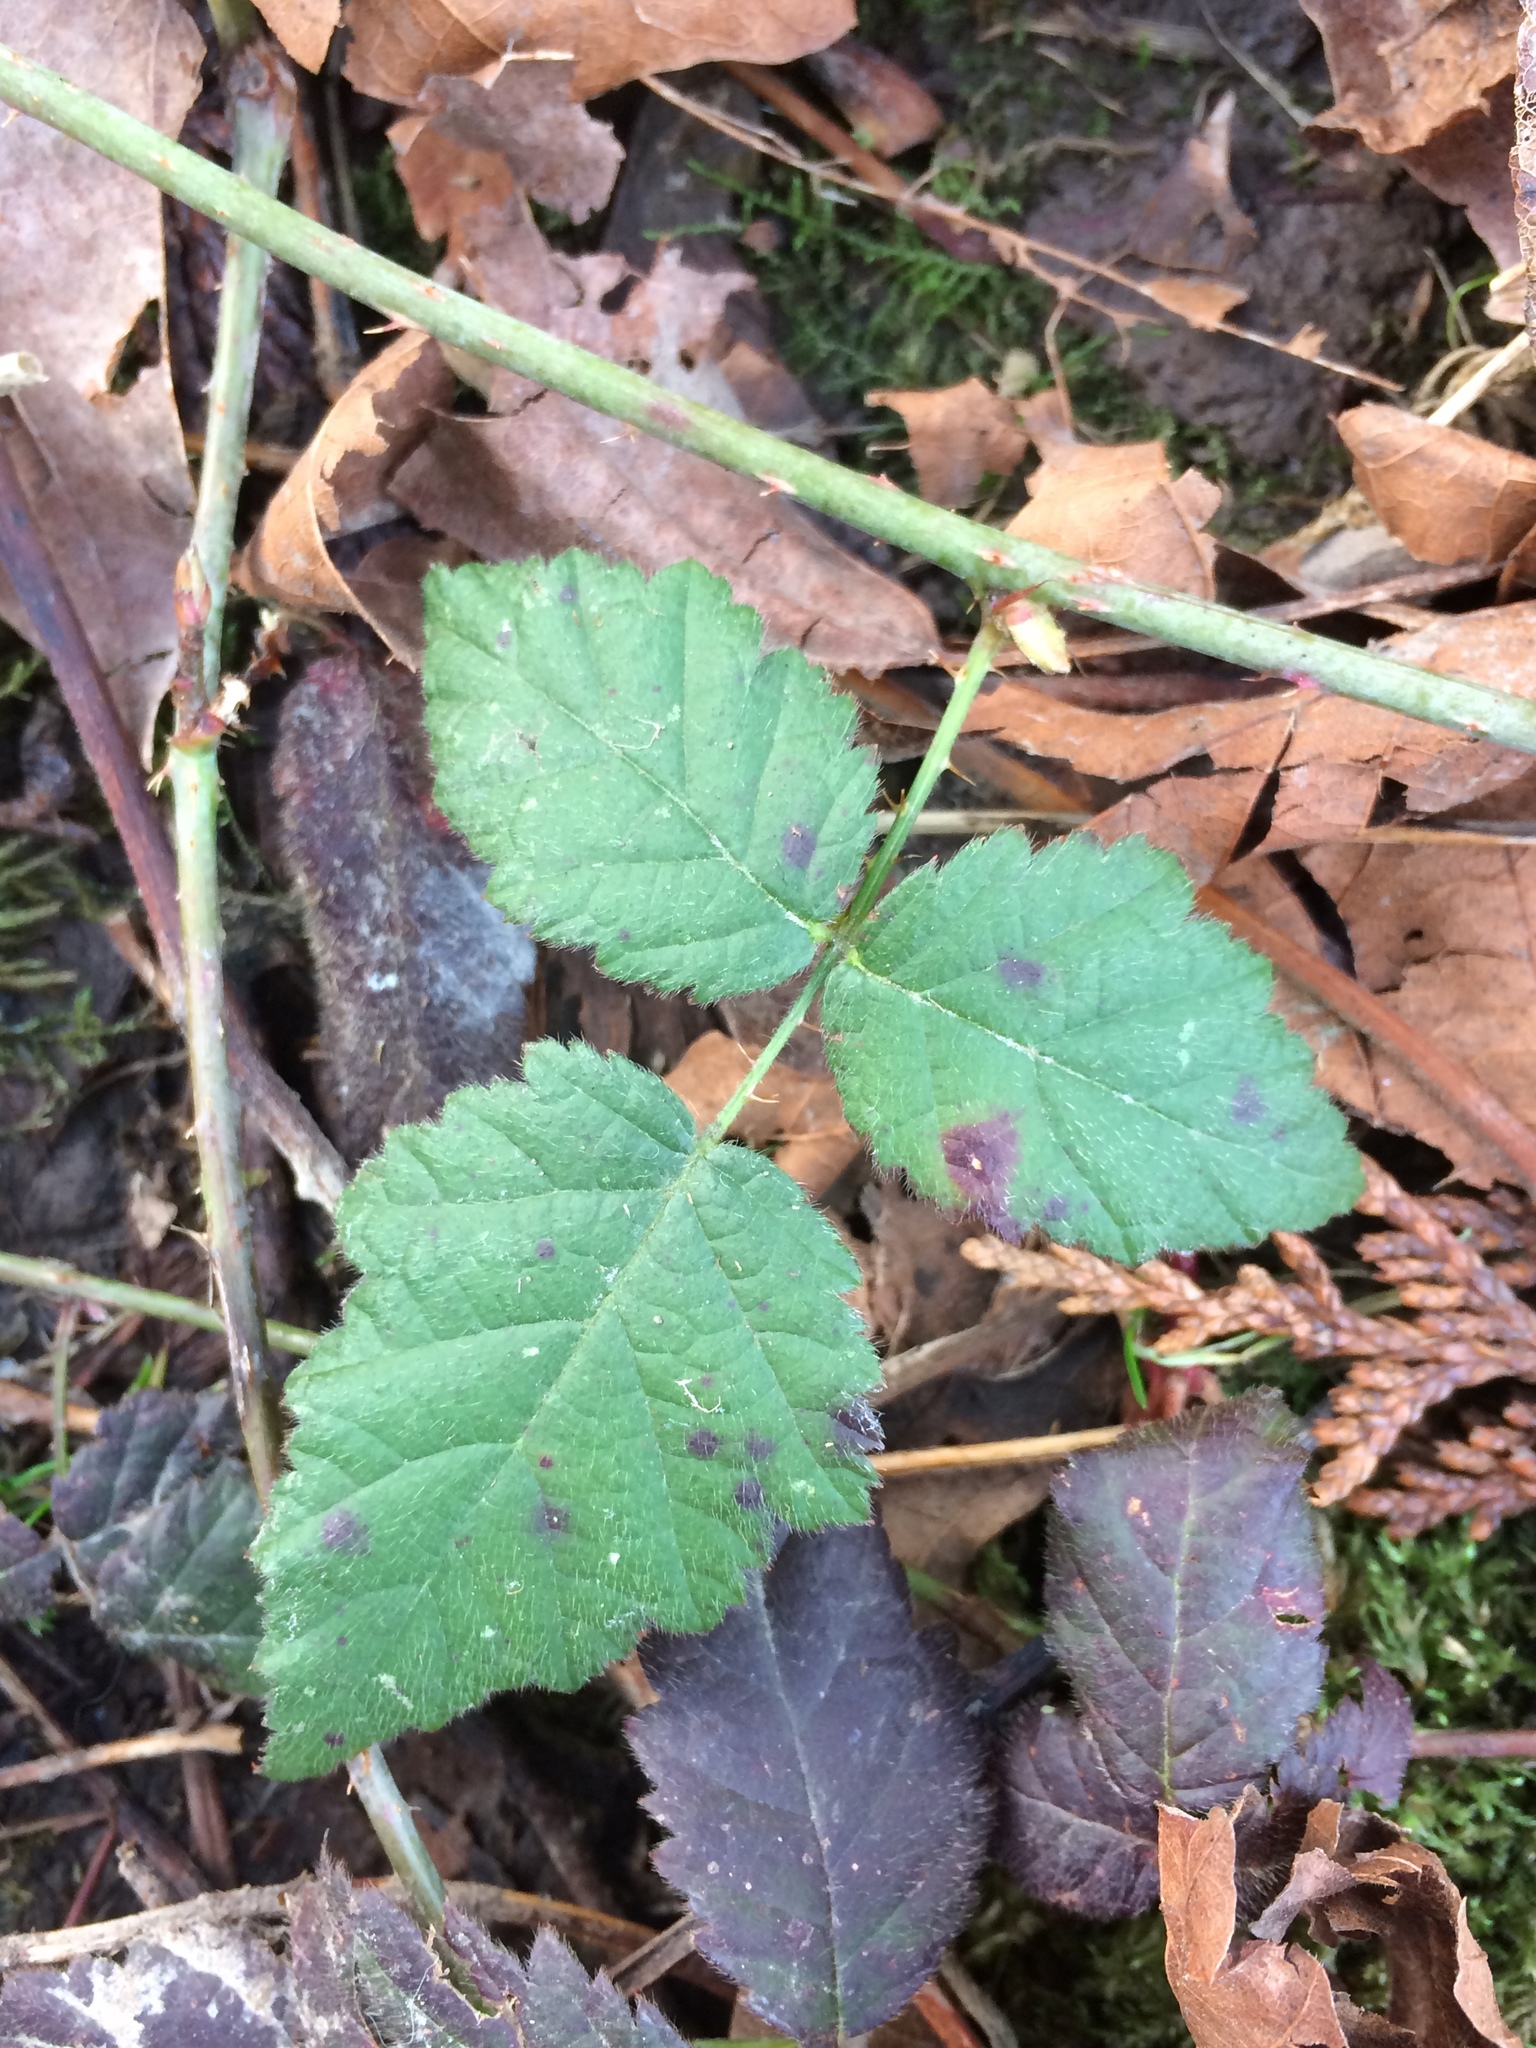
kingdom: Plantae
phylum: Tracheophyta
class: Magnoliopsida
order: Rosales
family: Rosaceae
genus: Rubus
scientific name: Rubus ursinus
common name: Pacific blackberry
